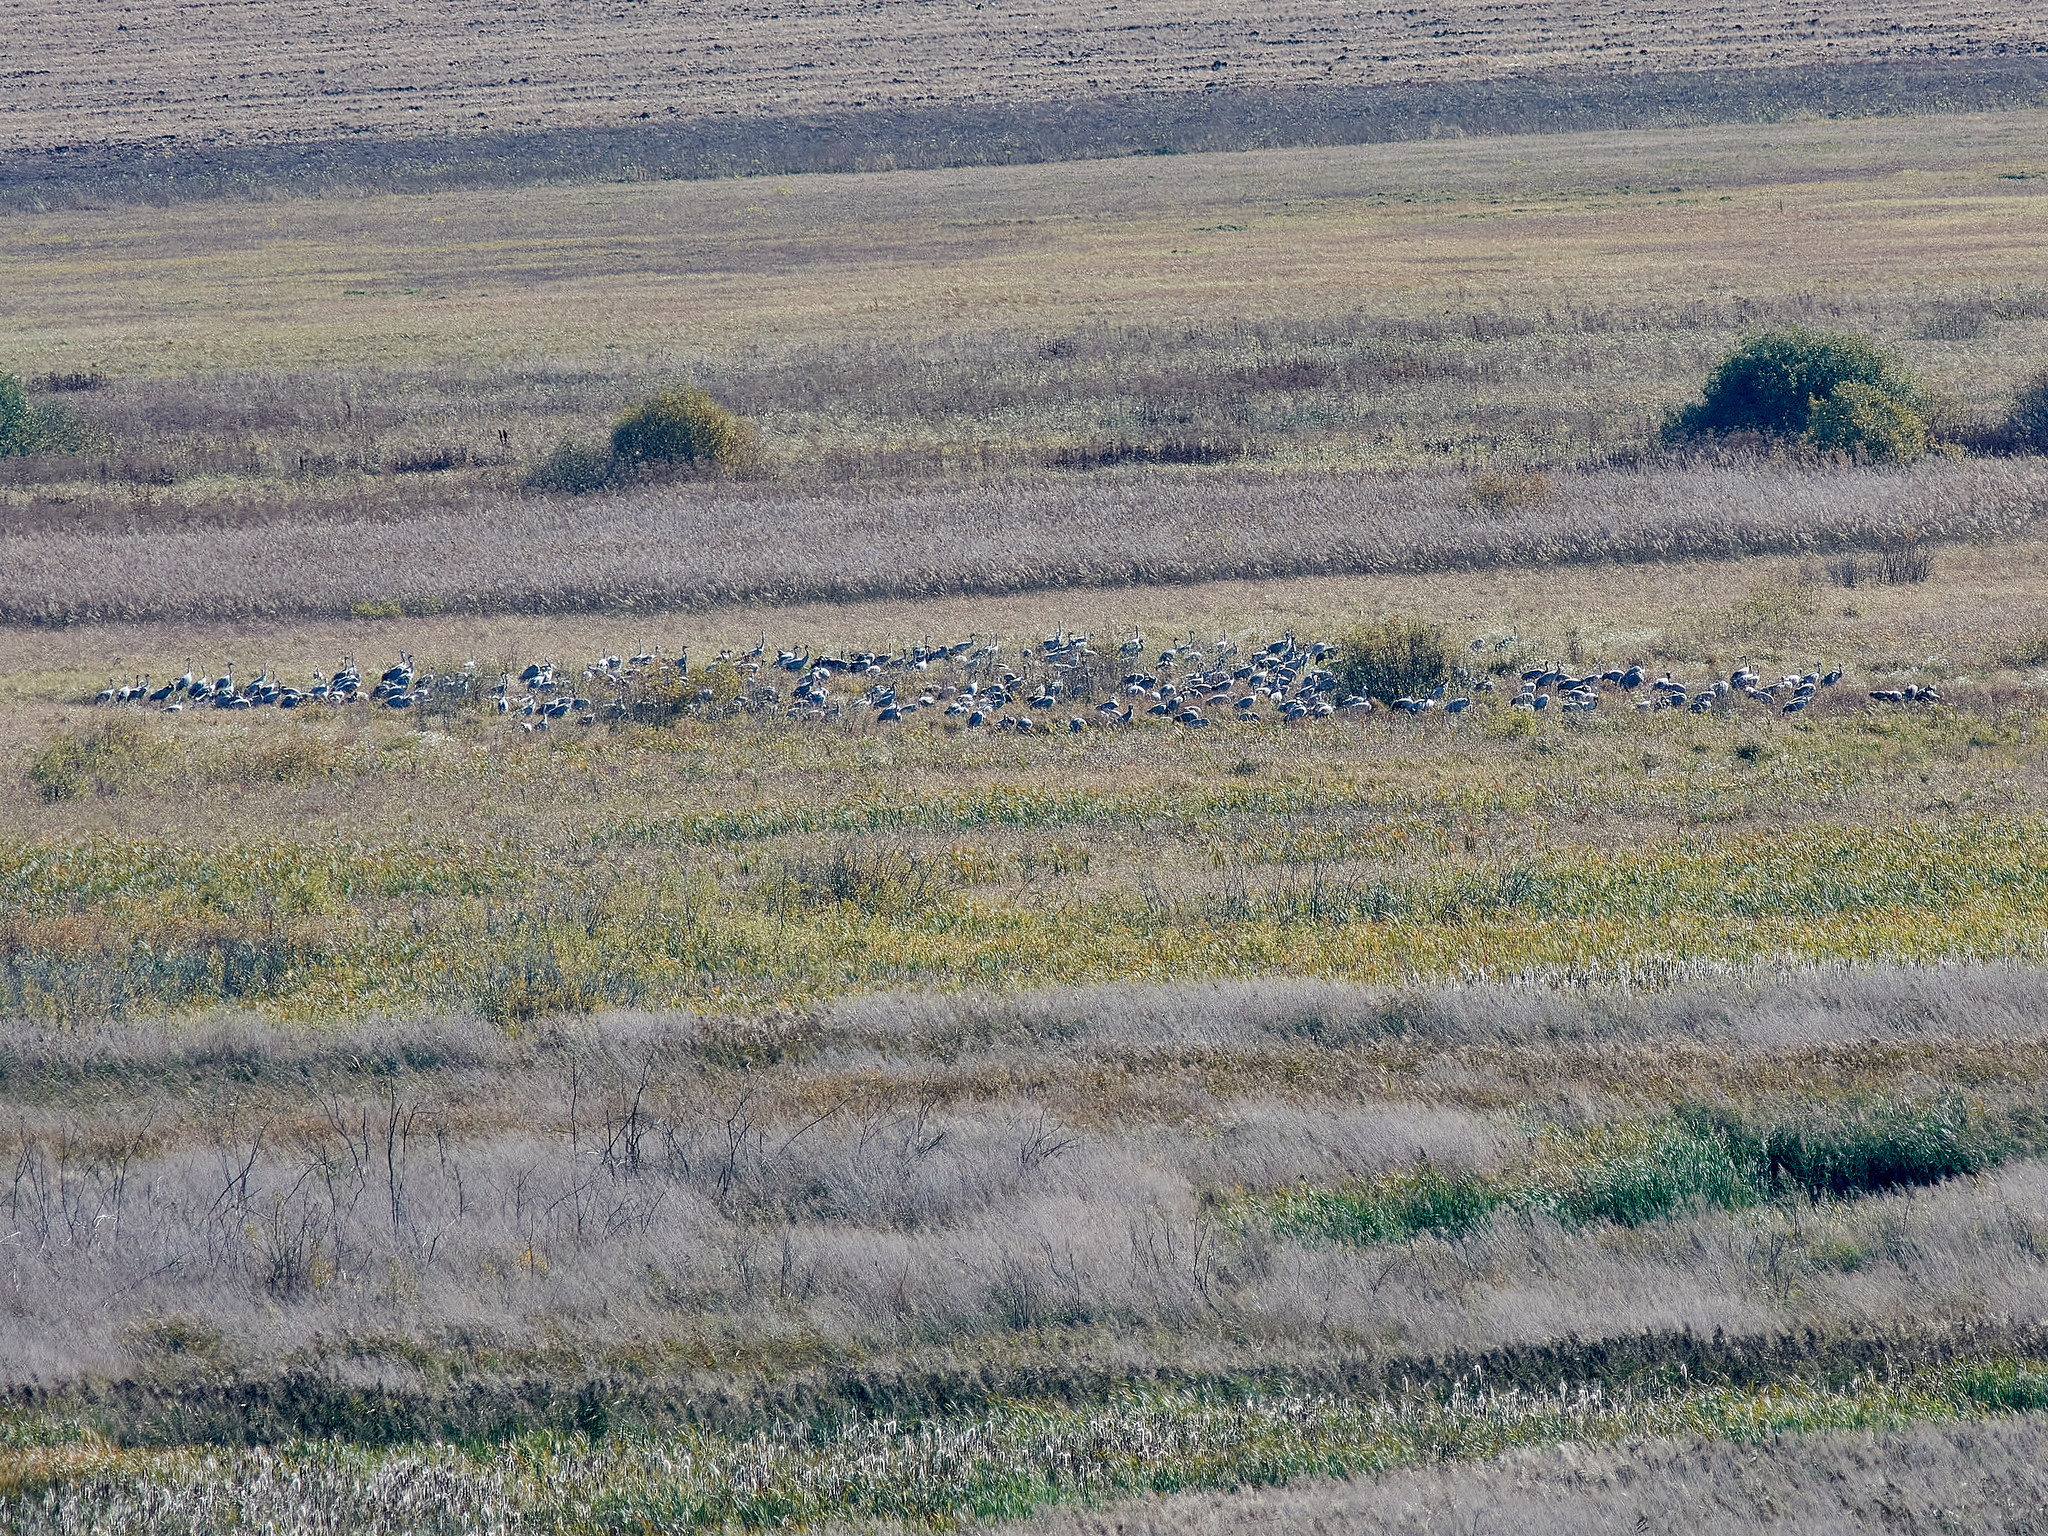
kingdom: Animalia
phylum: Chordata
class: Aves
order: Gruiformes
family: Gruidae
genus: Grus
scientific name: Grus grus
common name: Common crane
